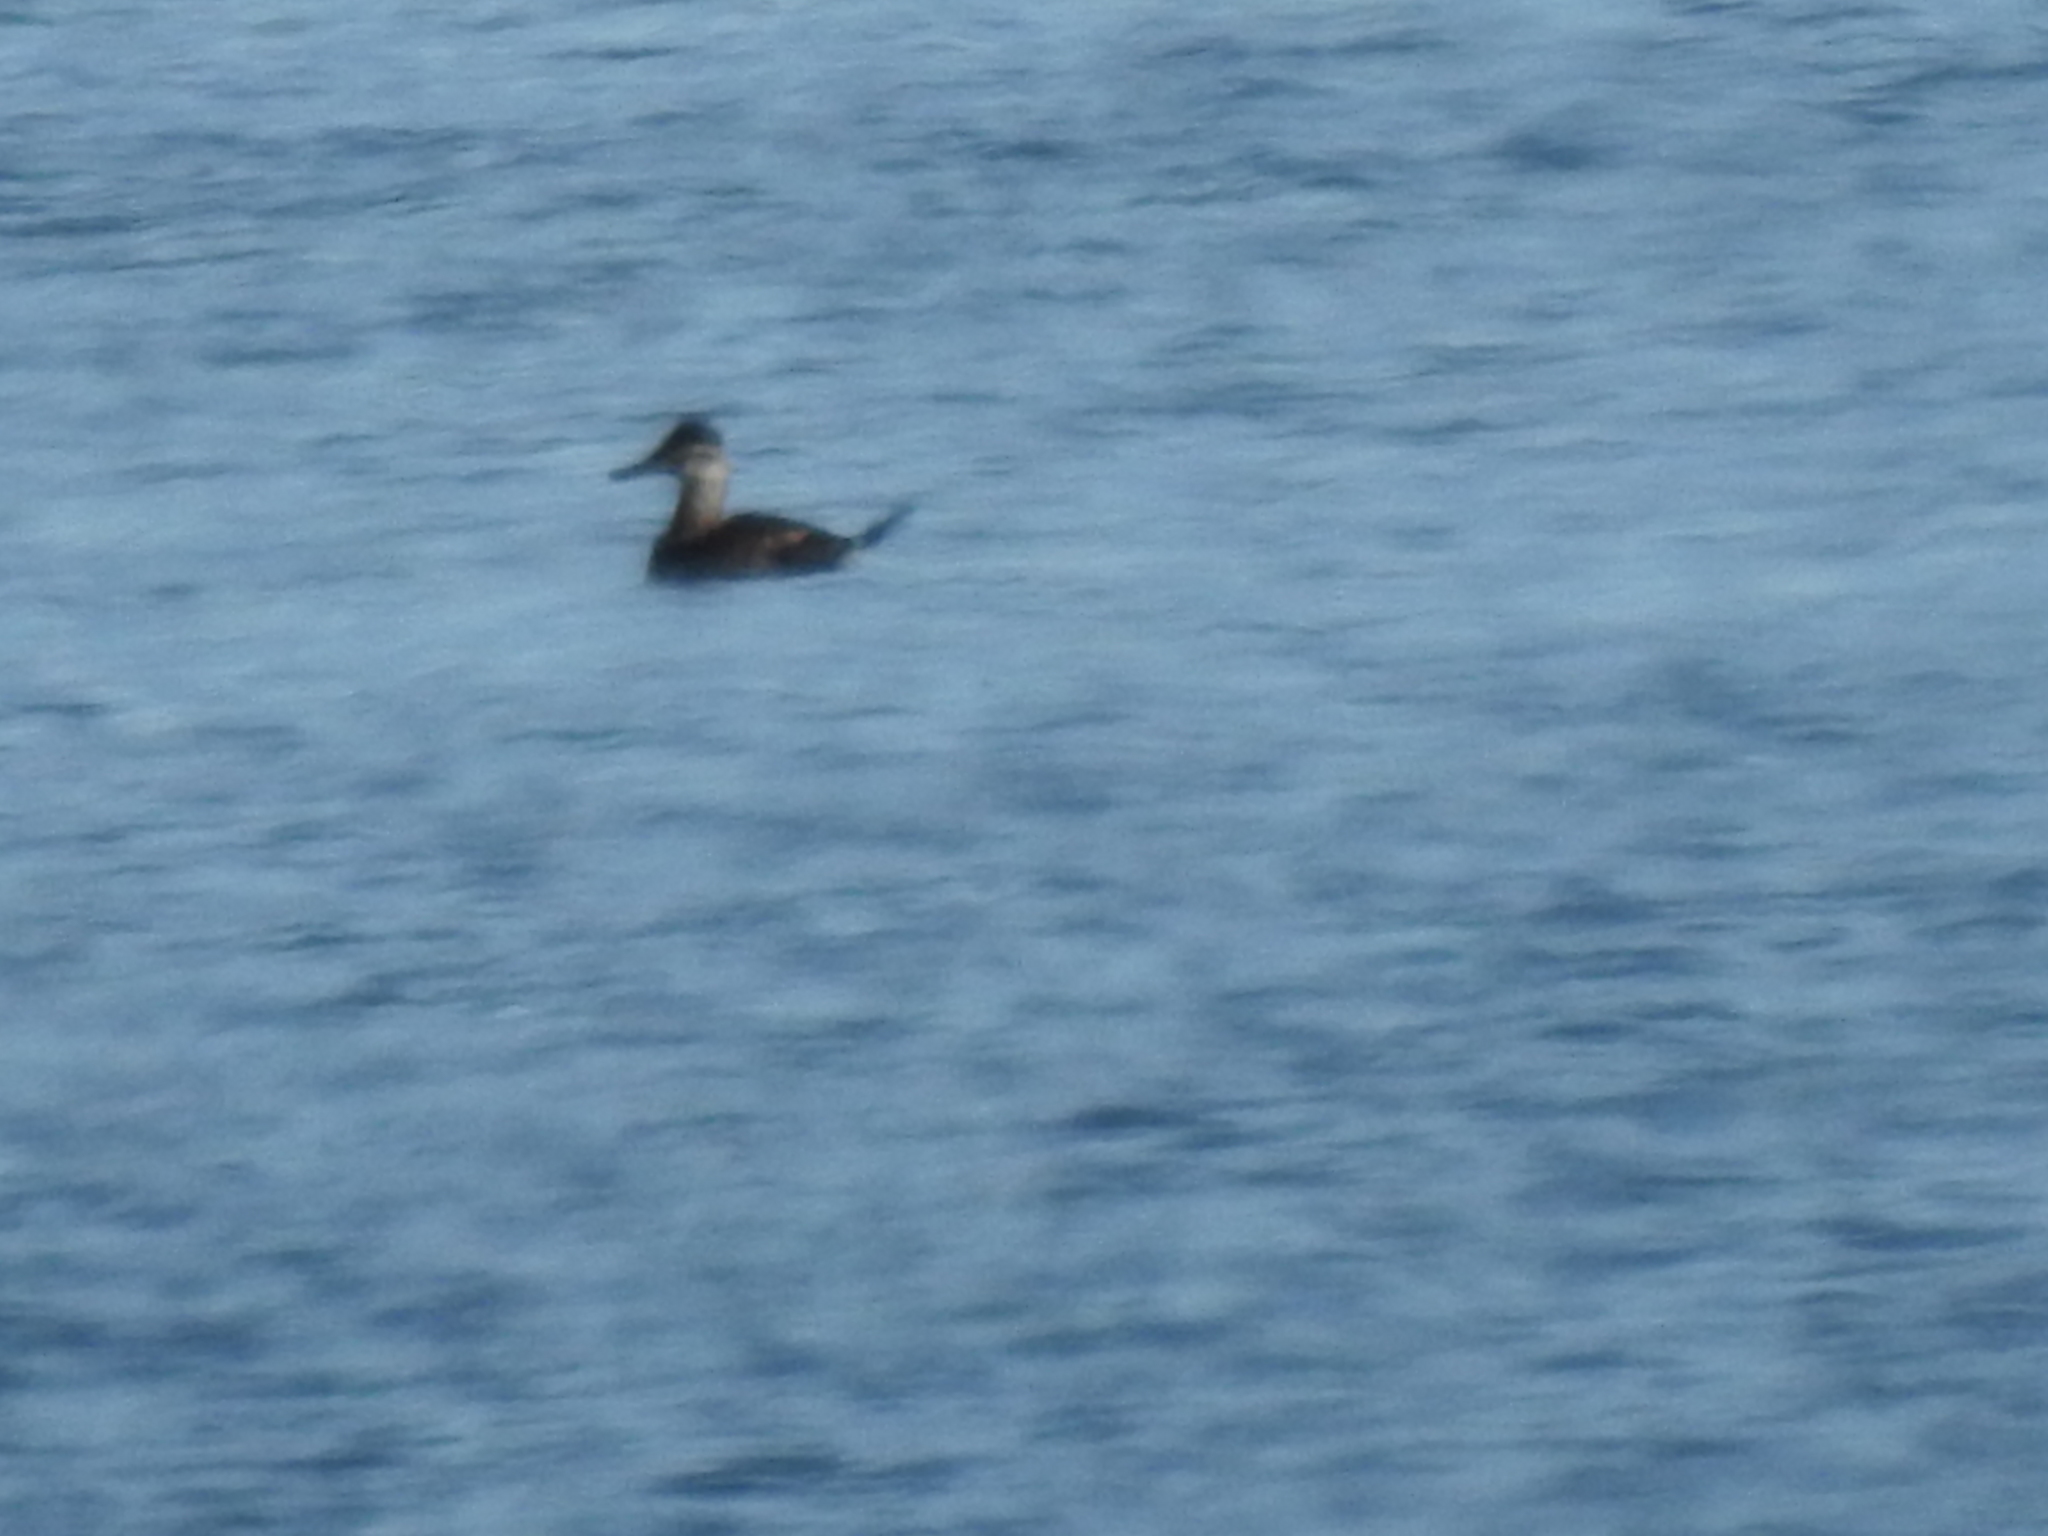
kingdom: Animalia
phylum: Chordata
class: Aves
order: Anseriformes
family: Anatidae
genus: Oxyura
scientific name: Oxyura jamaicensis
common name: Ruddy duck
